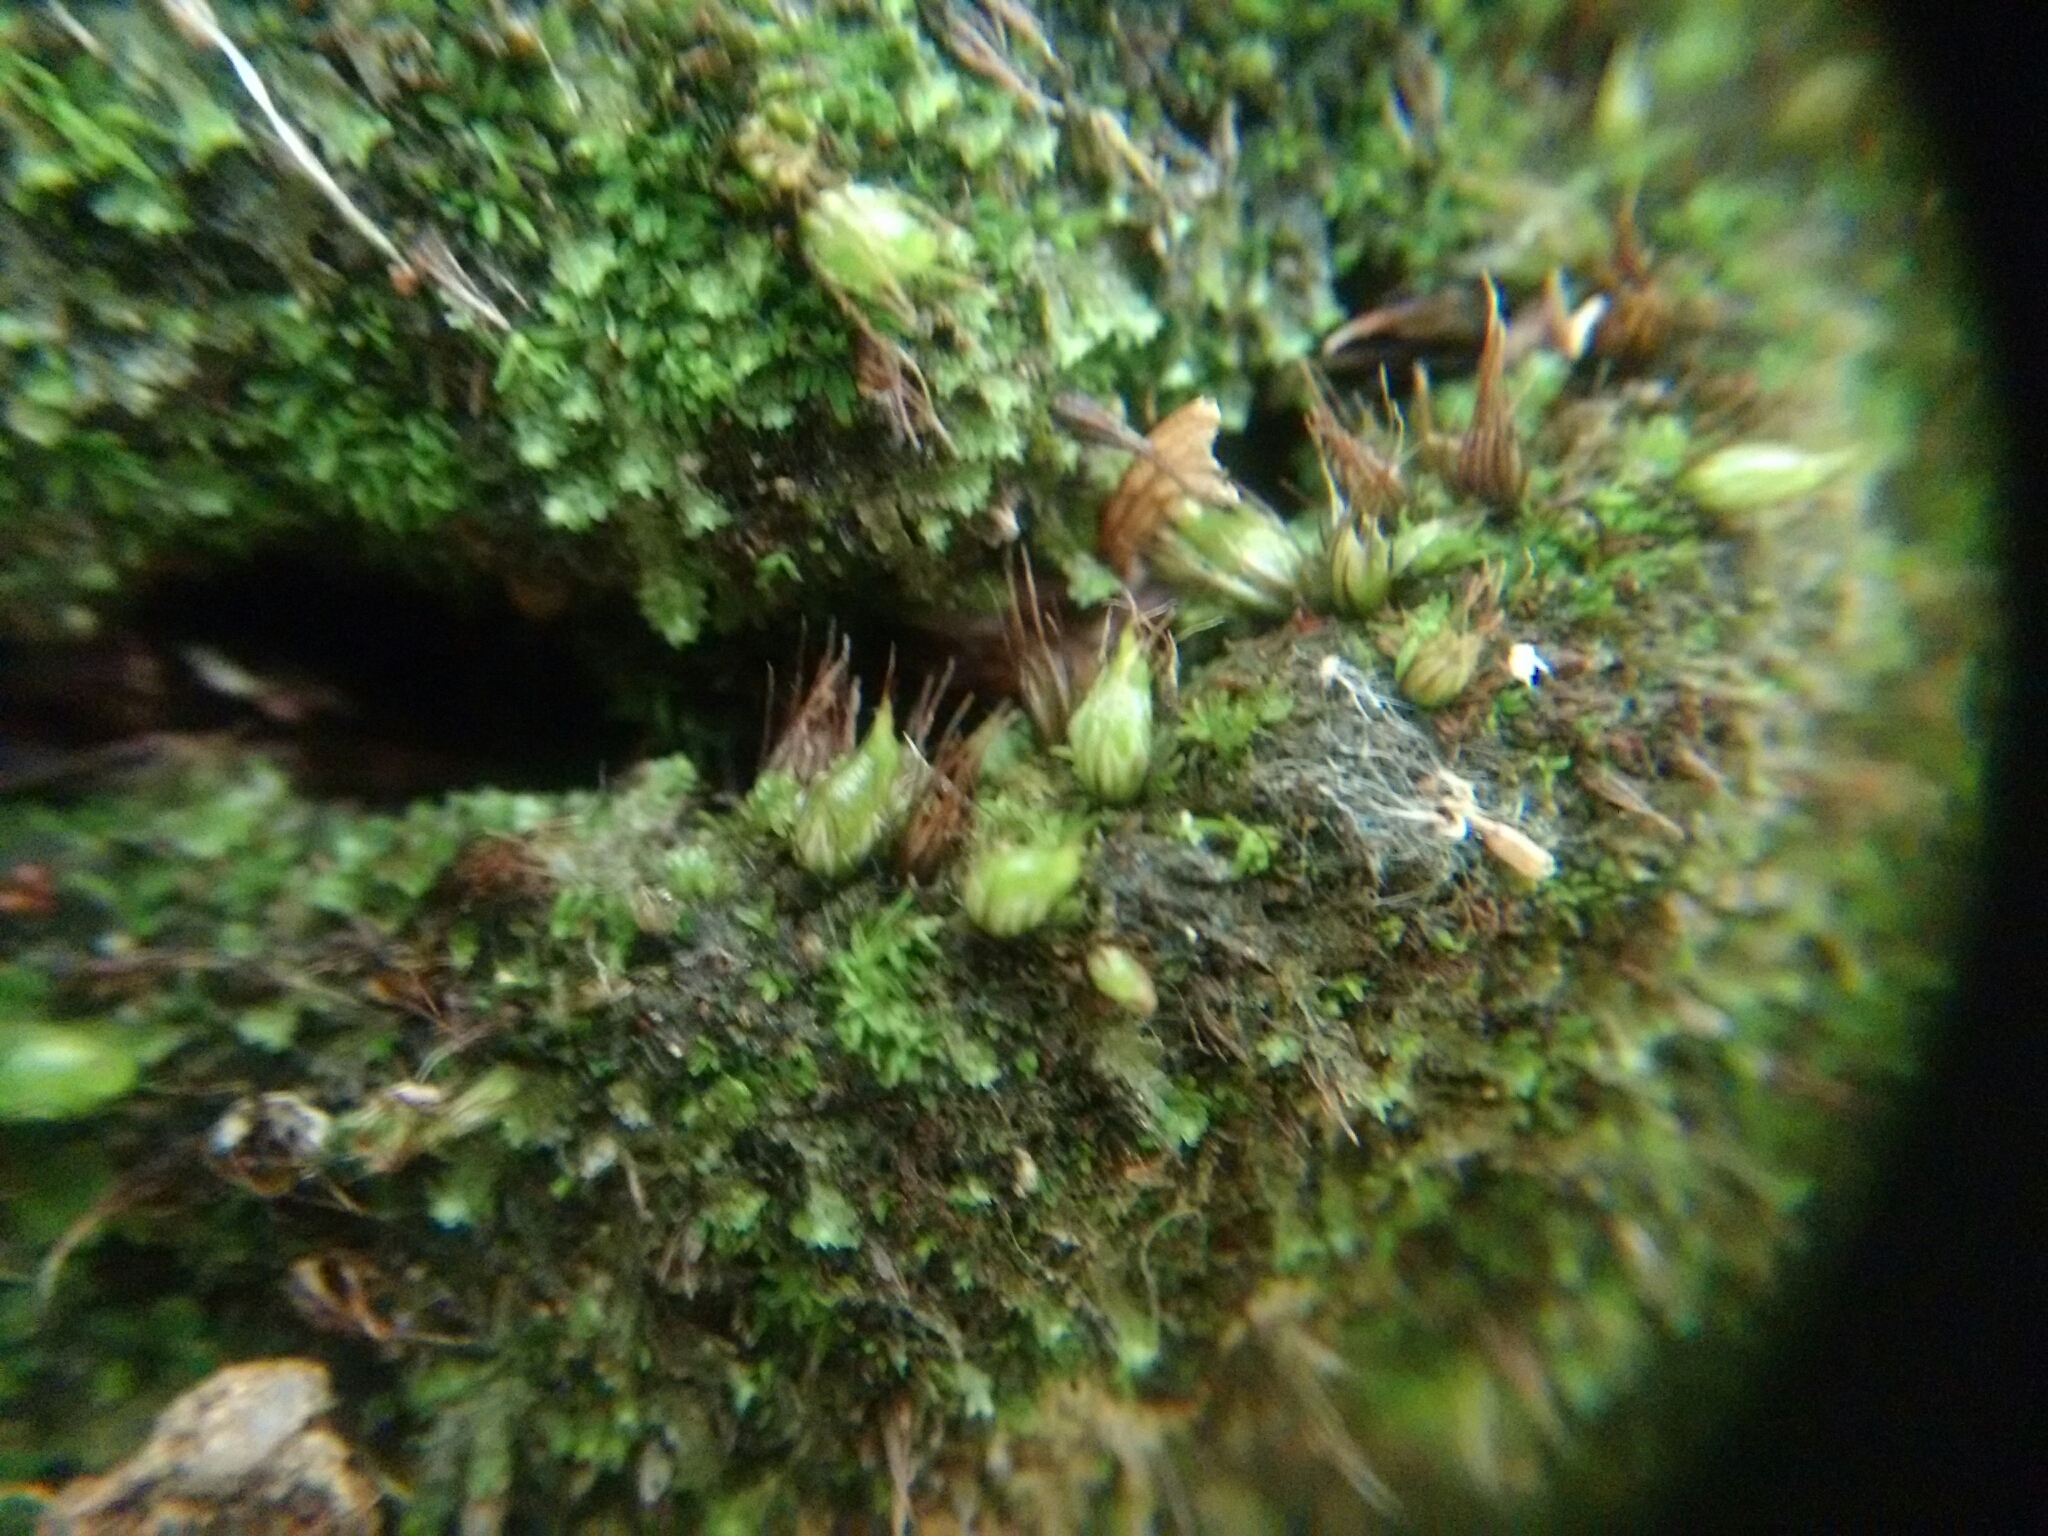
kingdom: Plantae
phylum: Bryophyta
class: Bryopsida
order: Diphysciales
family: Diphysciaceae
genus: Diphyscium
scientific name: Diphyscium foliosum
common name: Nut moss
